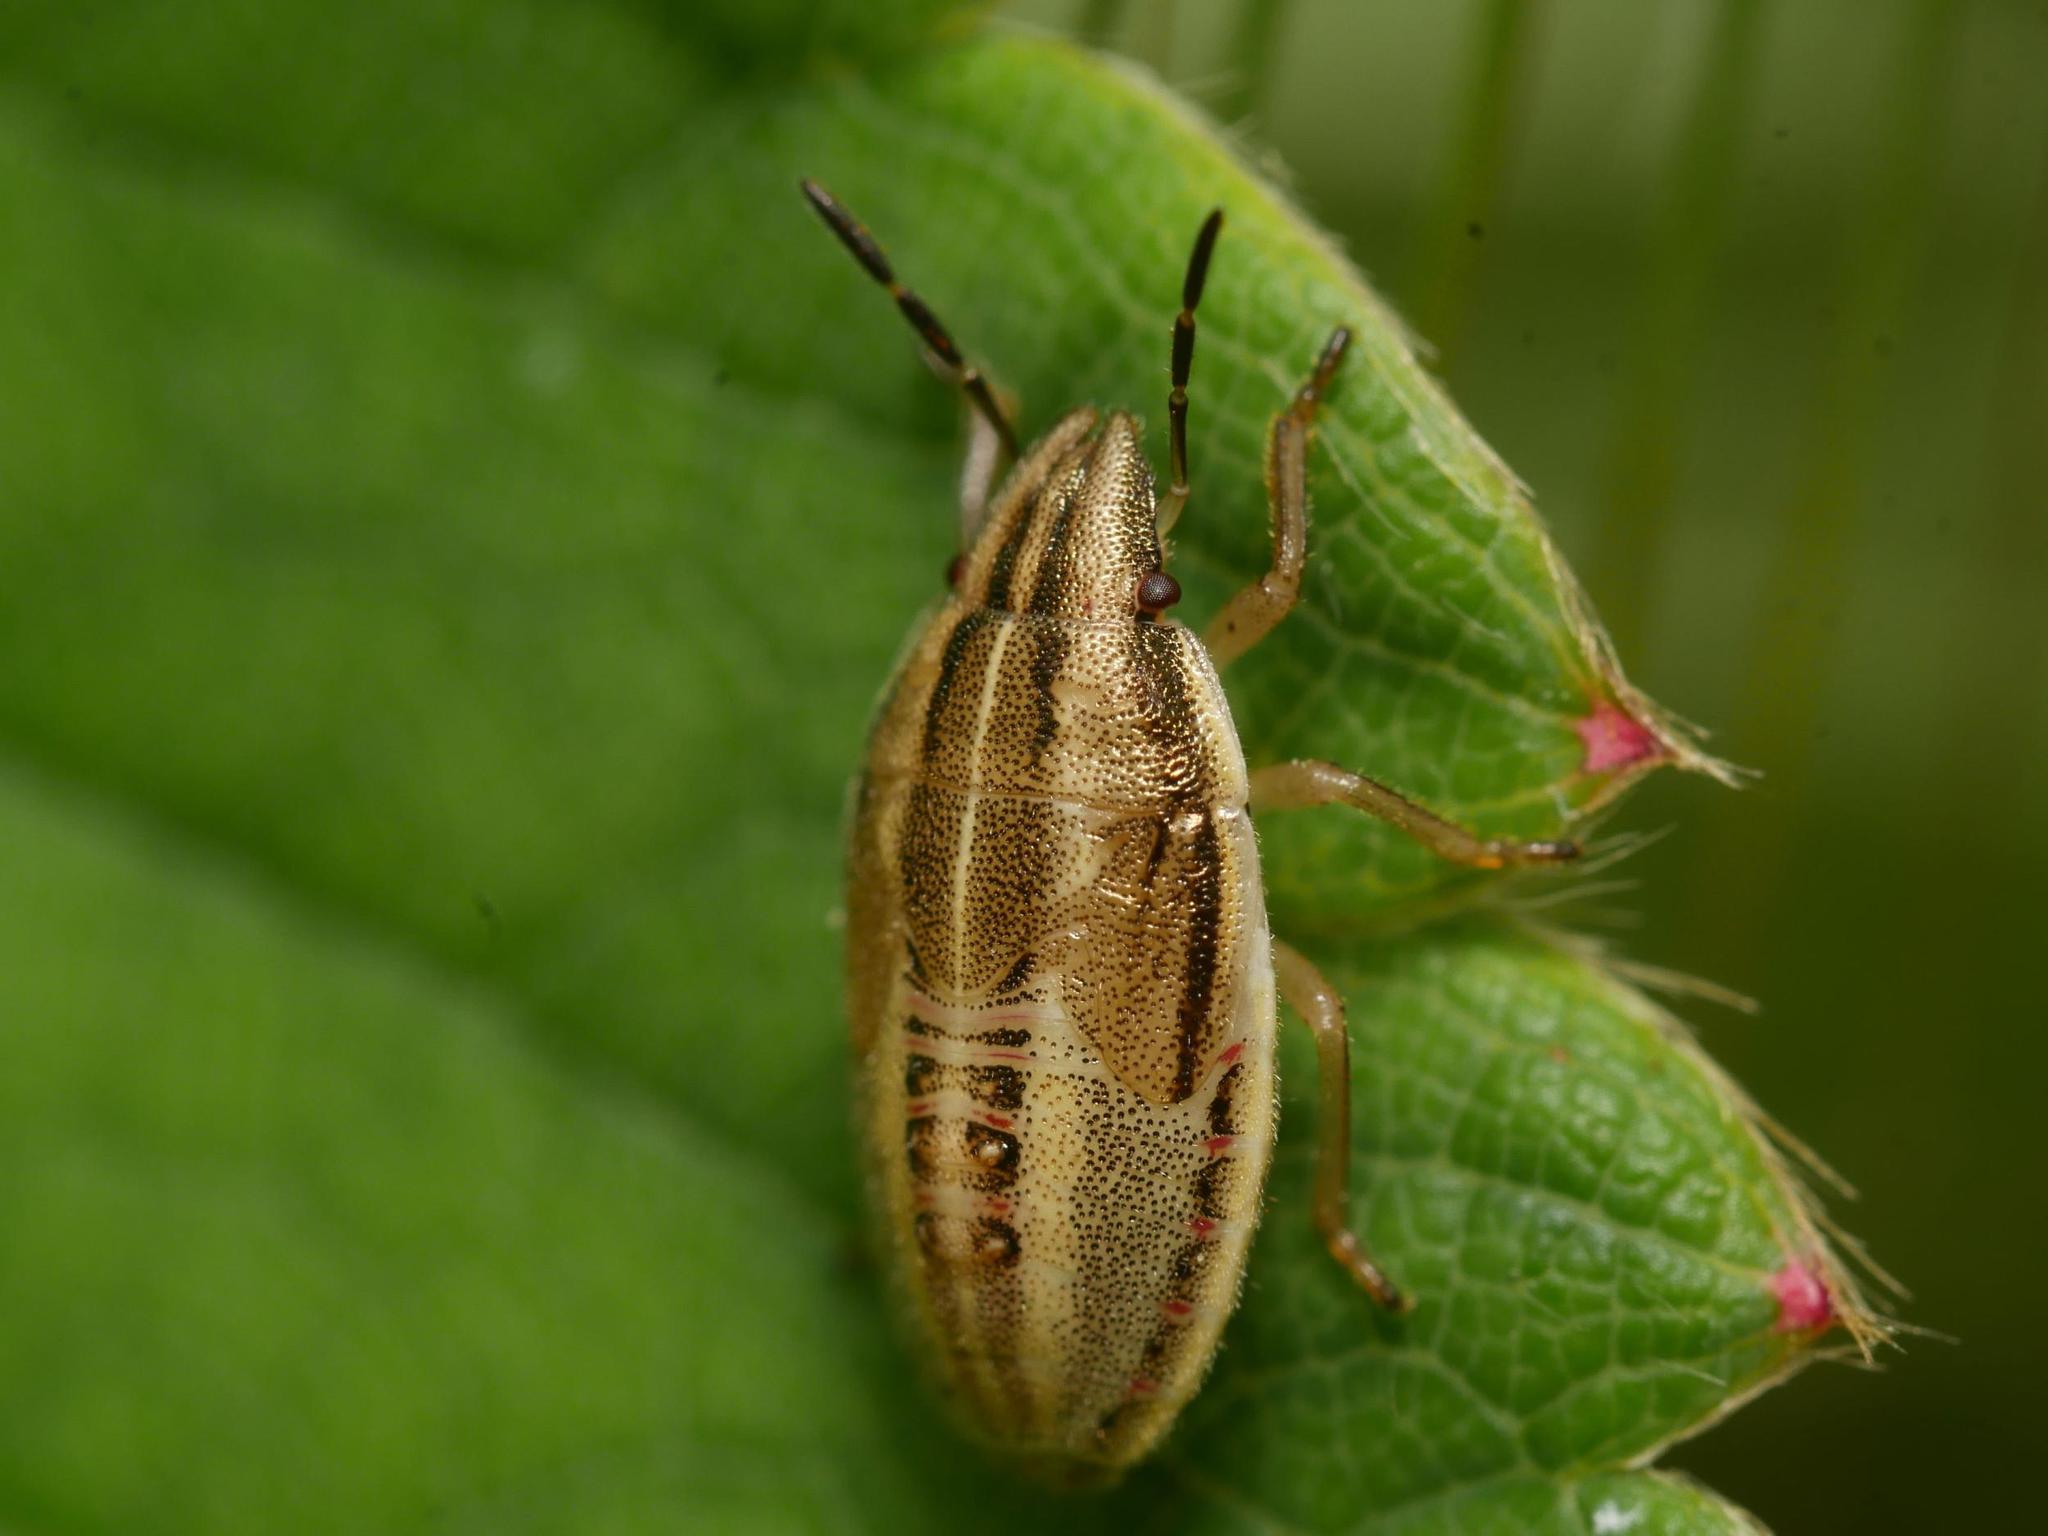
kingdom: Animalia
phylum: Arthropoda
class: Insecta
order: Hemiptera
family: Pentatomidae
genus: Aelia
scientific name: Aelia acuminata
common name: Bishop's mitre
